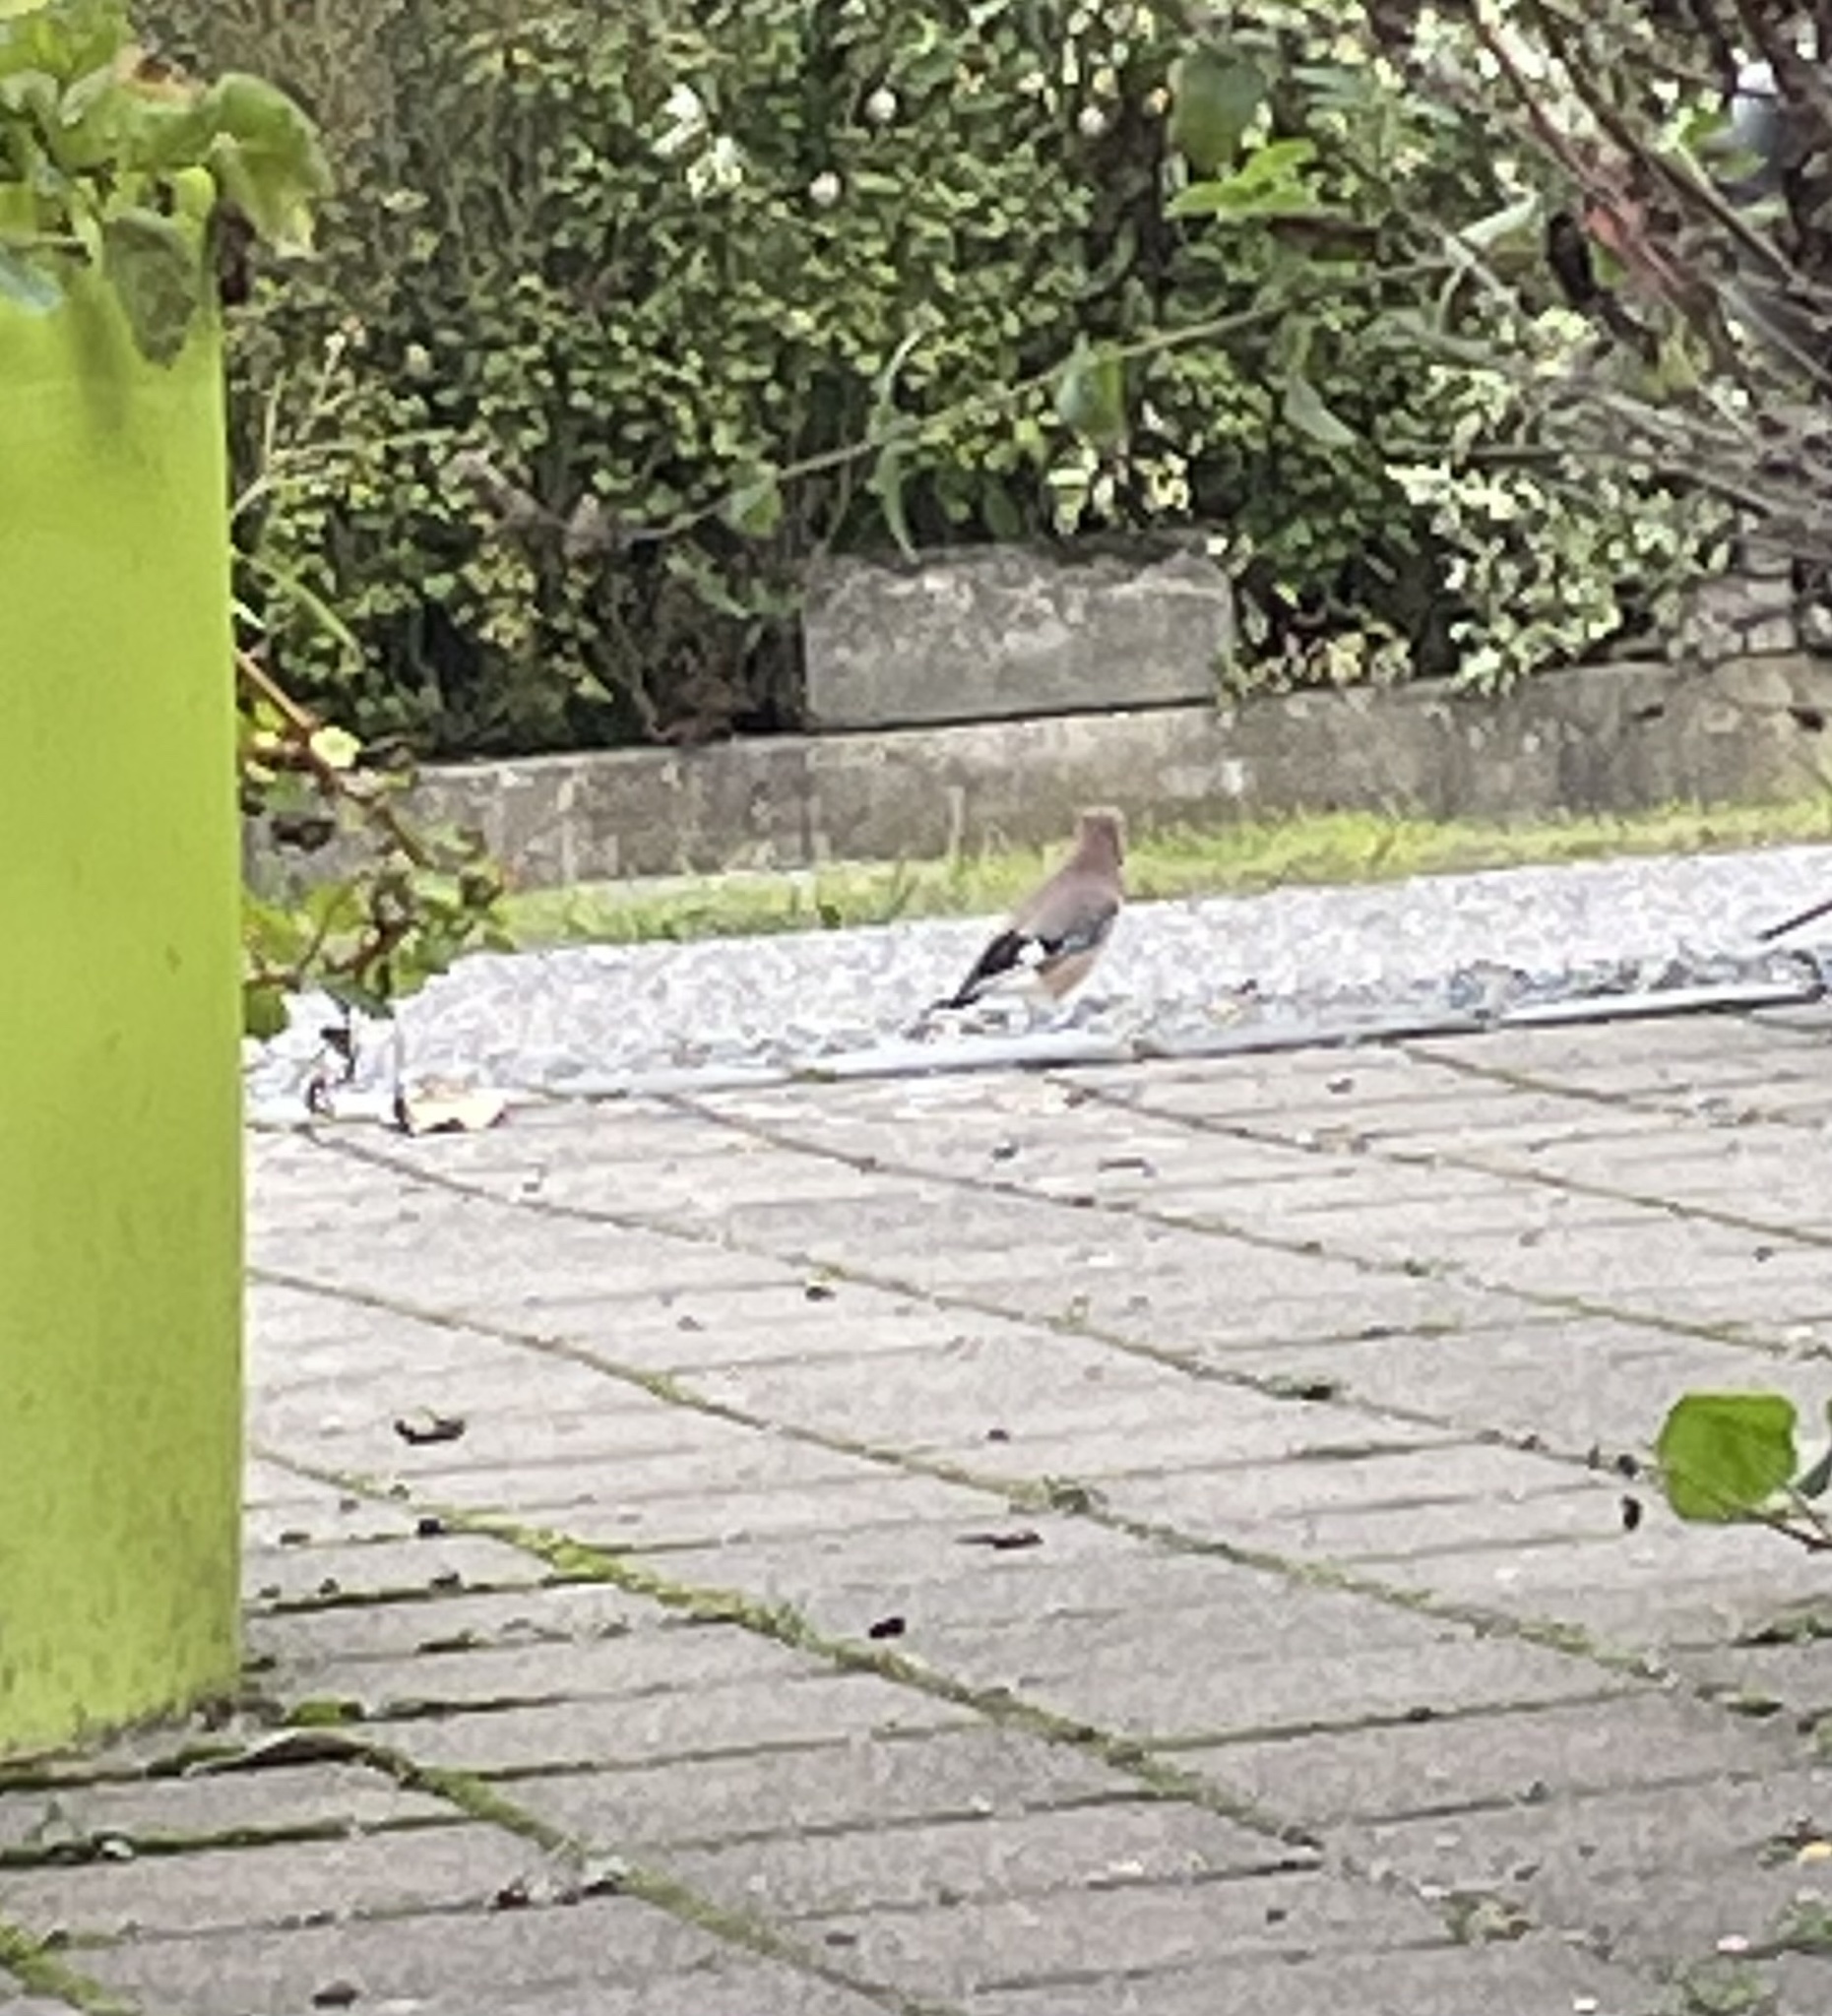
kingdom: Animalia
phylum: Chordata
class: Aves
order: Passeriformes
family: Corvidae
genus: Garrulus
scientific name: Garrulus glandarius
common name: Eurasian jay
